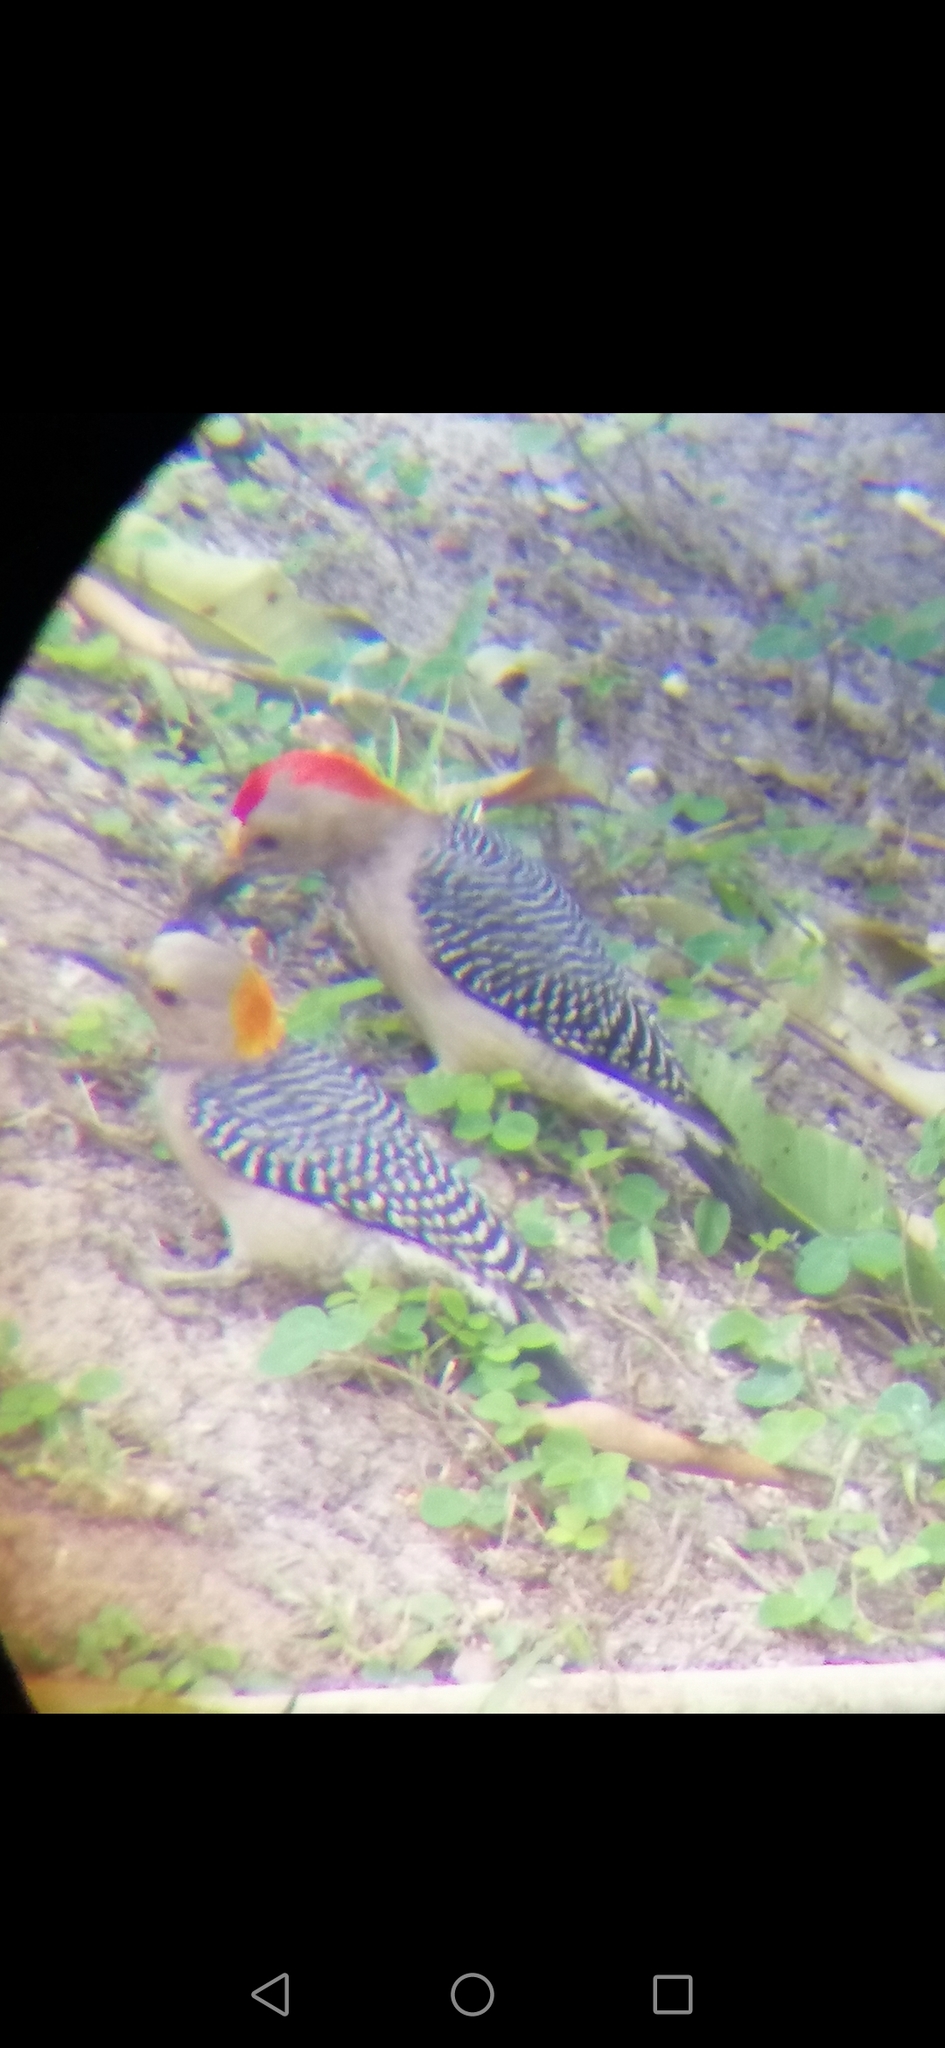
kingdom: Animalia
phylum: Chordata
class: Aves
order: Piciformes
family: Picidae
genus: Melanerpes
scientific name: Melanerpes aurifrons
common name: Golden-fronted woodpecker
